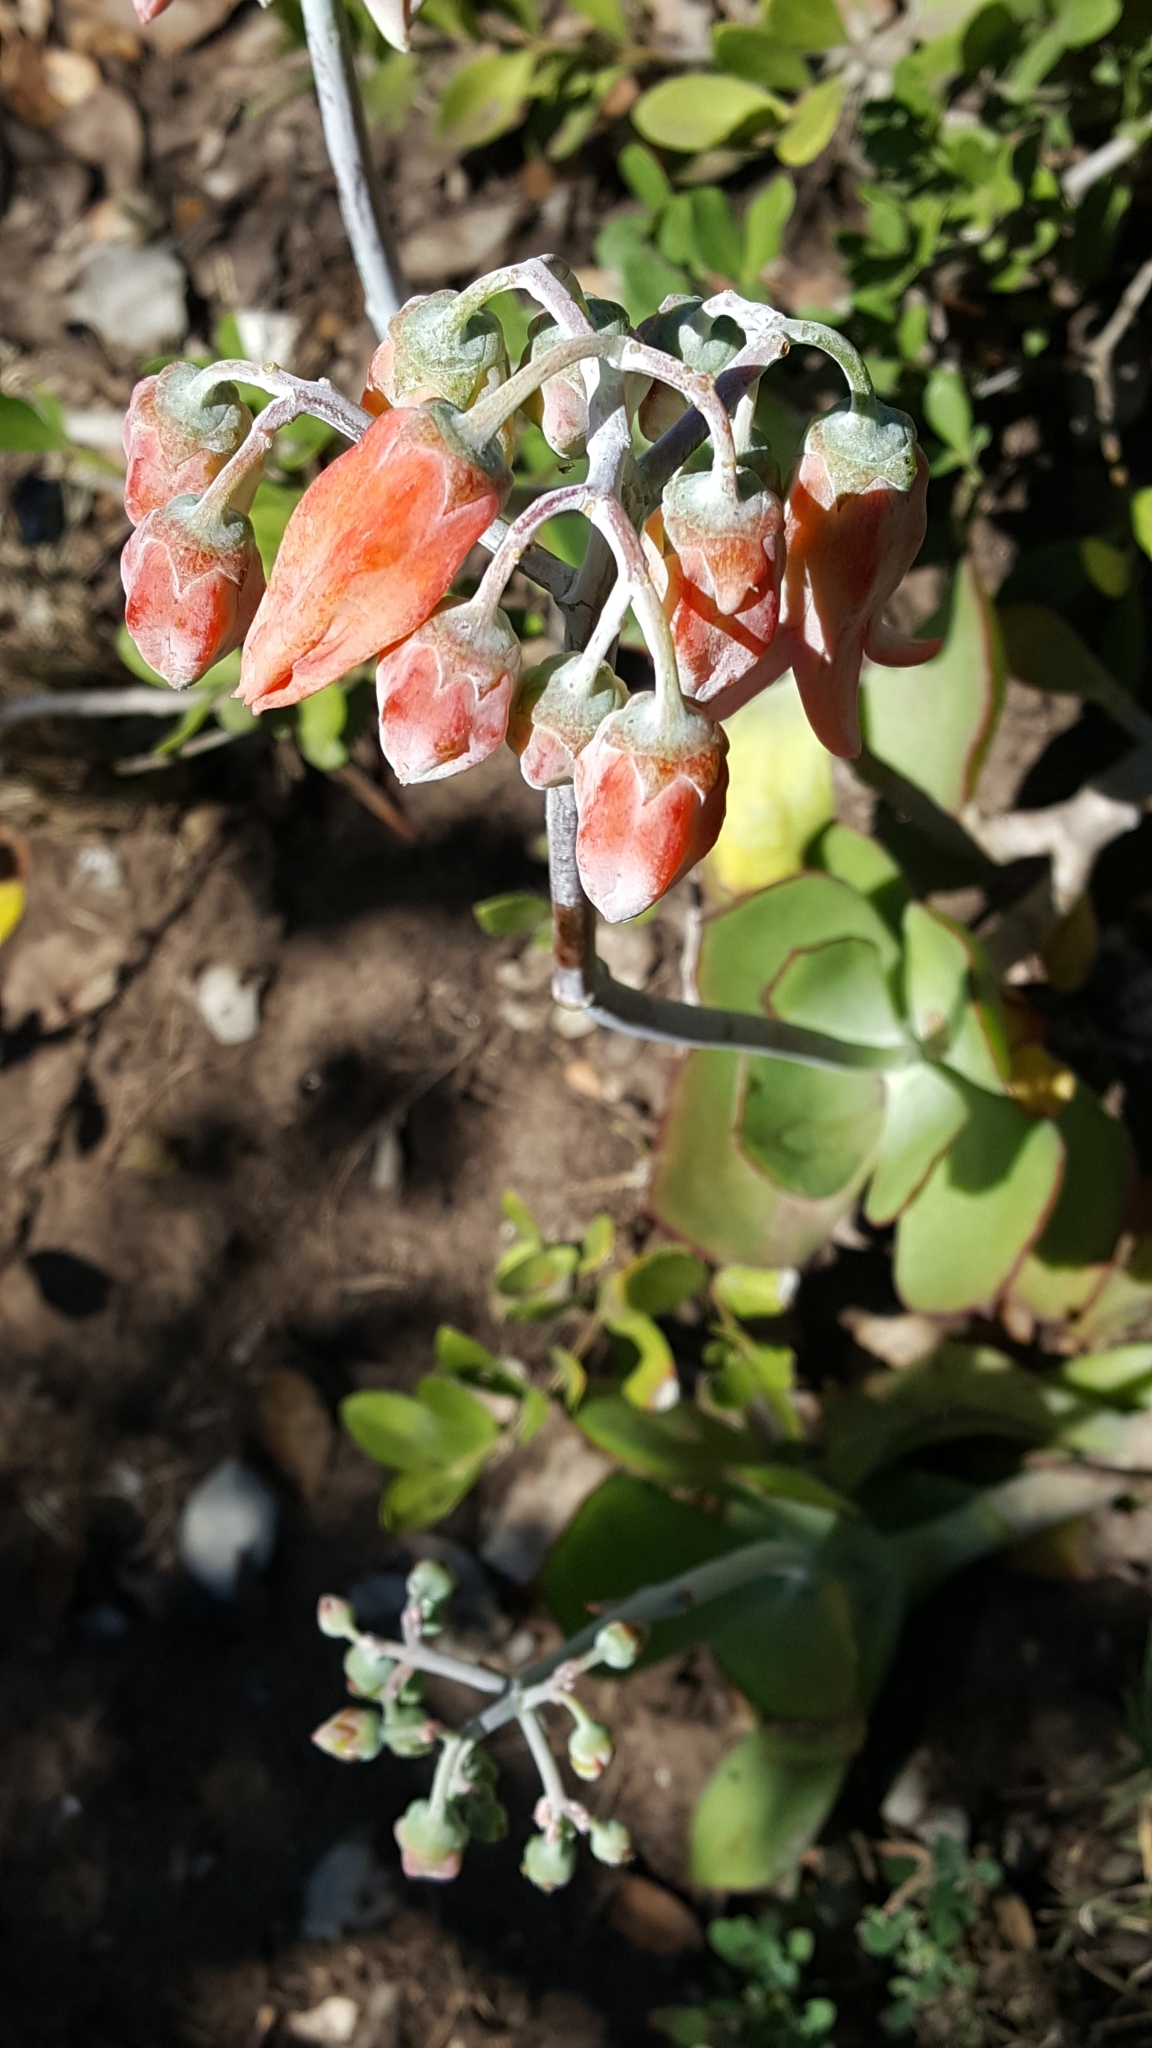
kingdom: Plantae
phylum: Tracheophyta
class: Magnoliopsida
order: Saxifragales
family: Crassulaceae
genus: Cotyledon
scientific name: Cotyledon orbiculata
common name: Pig's ear
